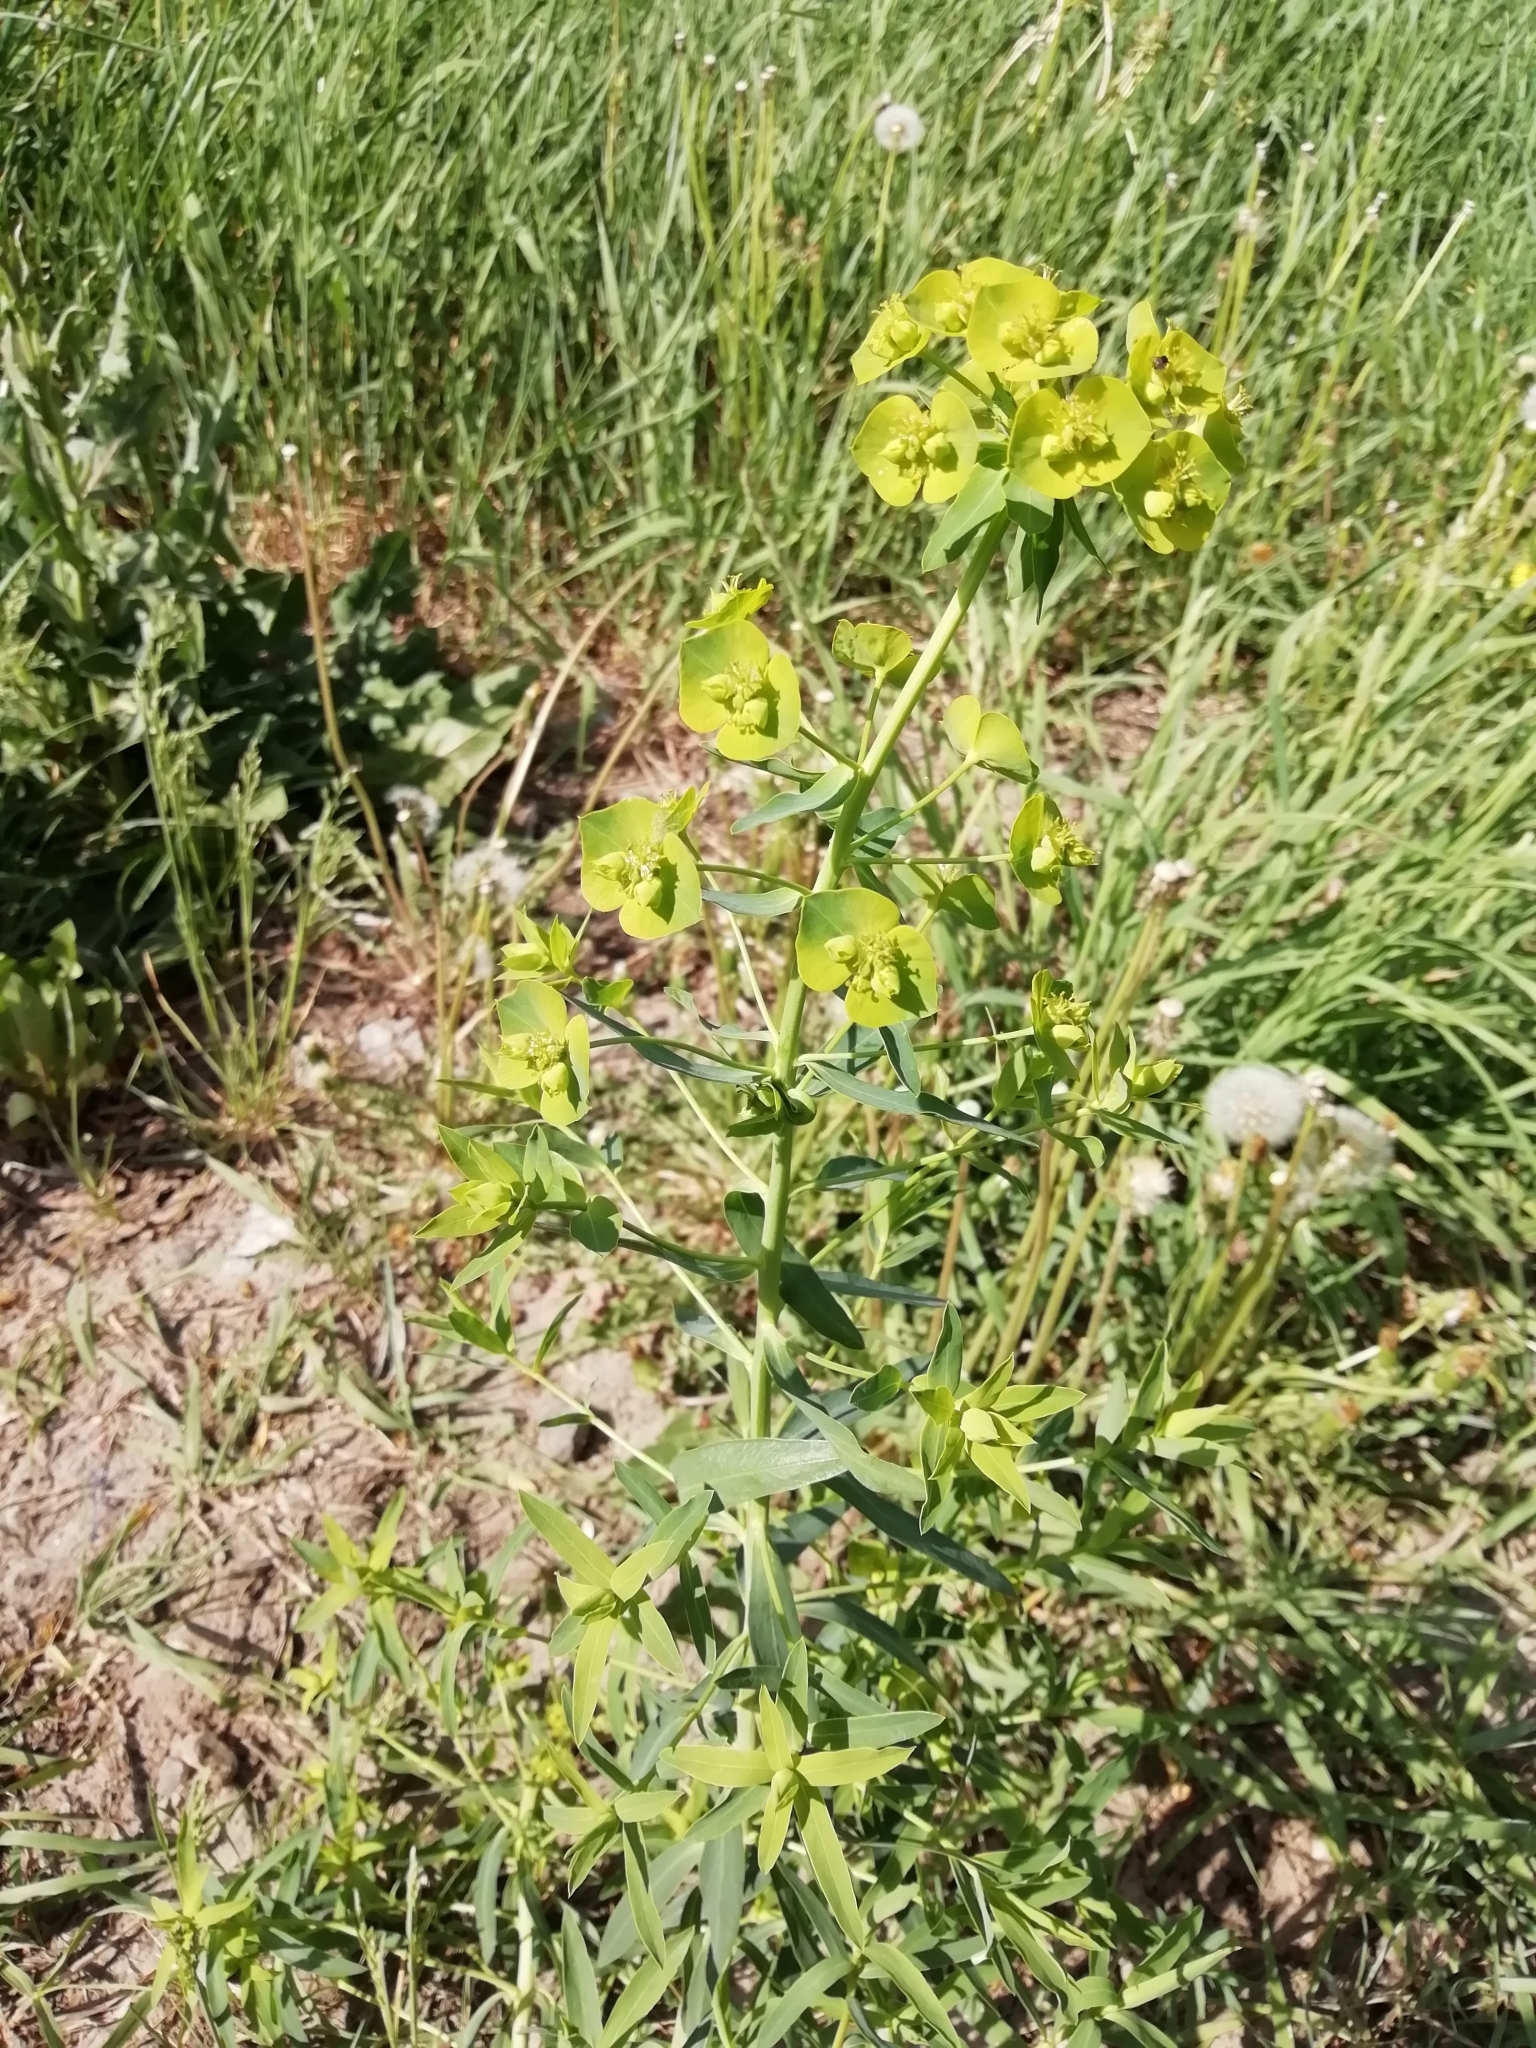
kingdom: Plantae
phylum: Tracheophyta
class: Magnoliopsida
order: Malpighiales
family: Euphorbiaceae
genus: Euphorbia
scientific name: Euphorbia virgata
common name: Leafy spurge
